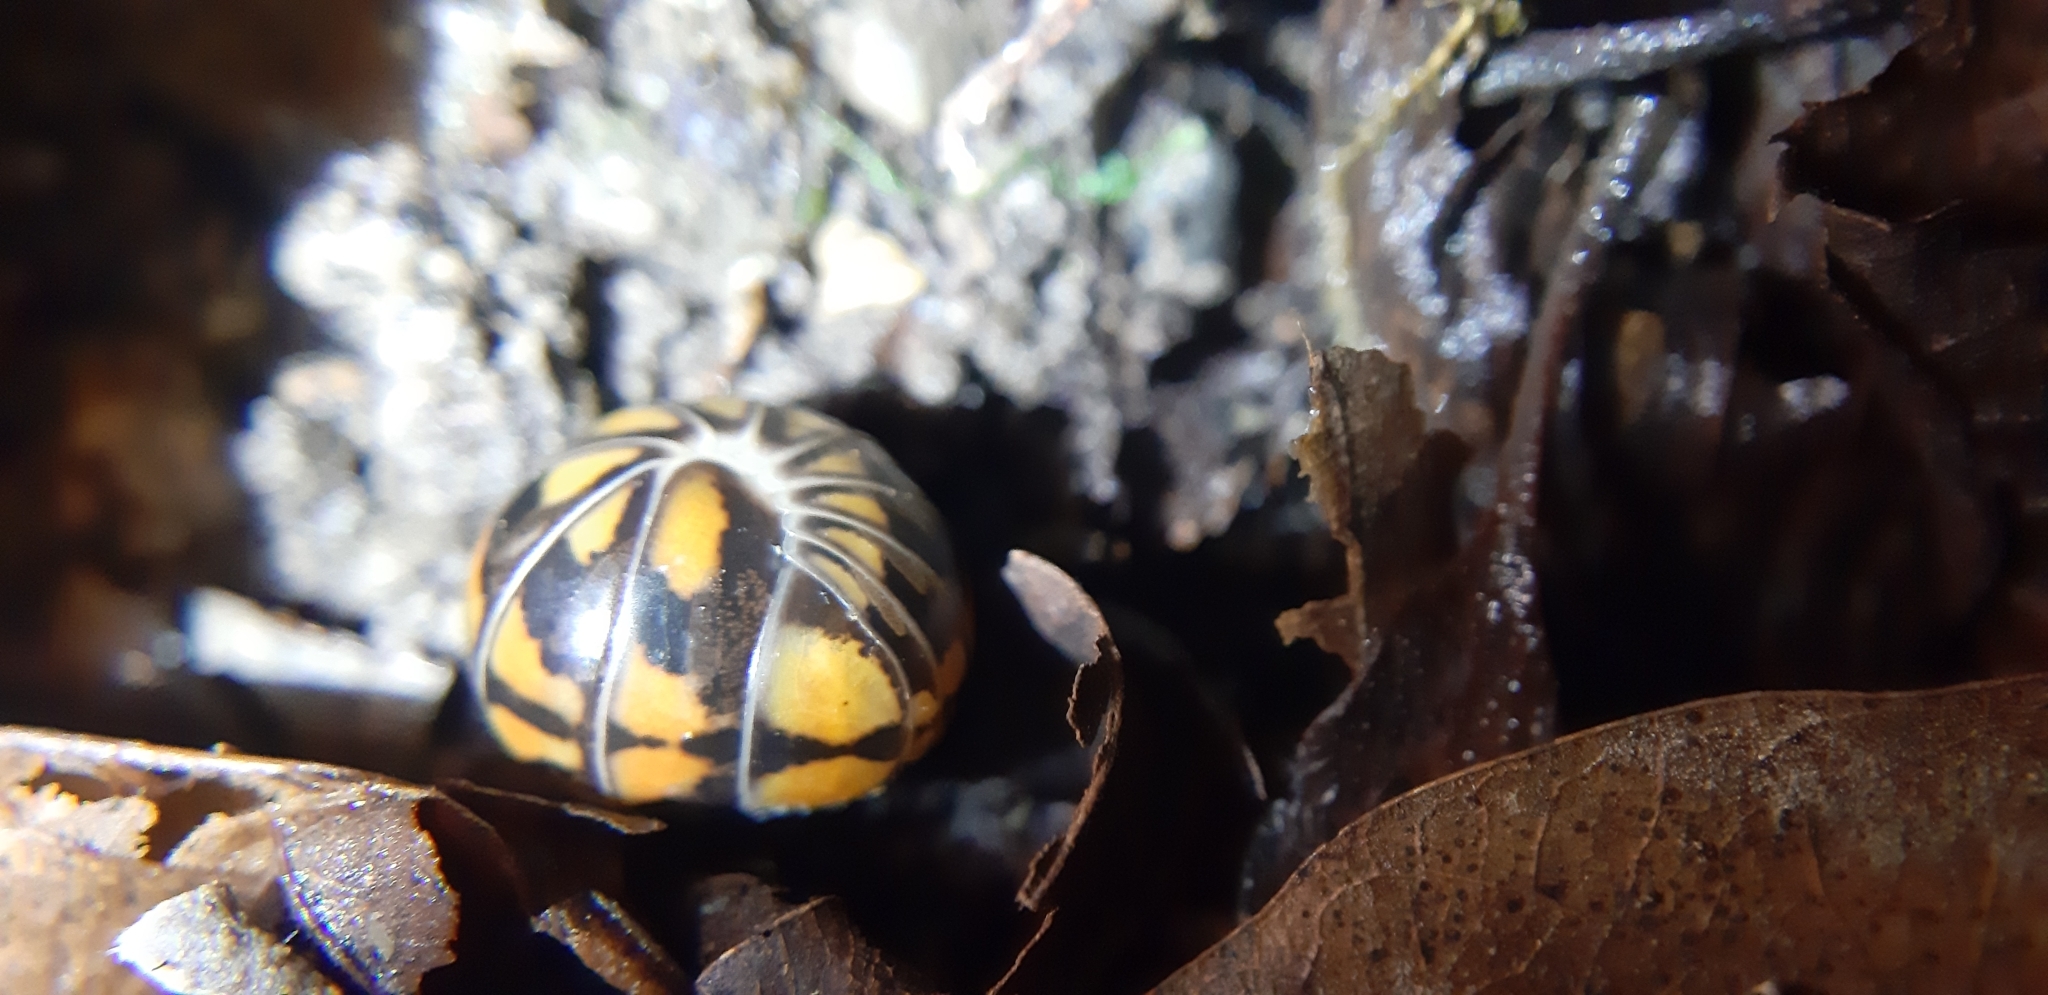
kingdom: Animalia
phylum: Arthropoda
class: Diplopoda
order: Glomerida
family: Glomeridae
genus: Glomeris
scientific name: Glomeris connexa
